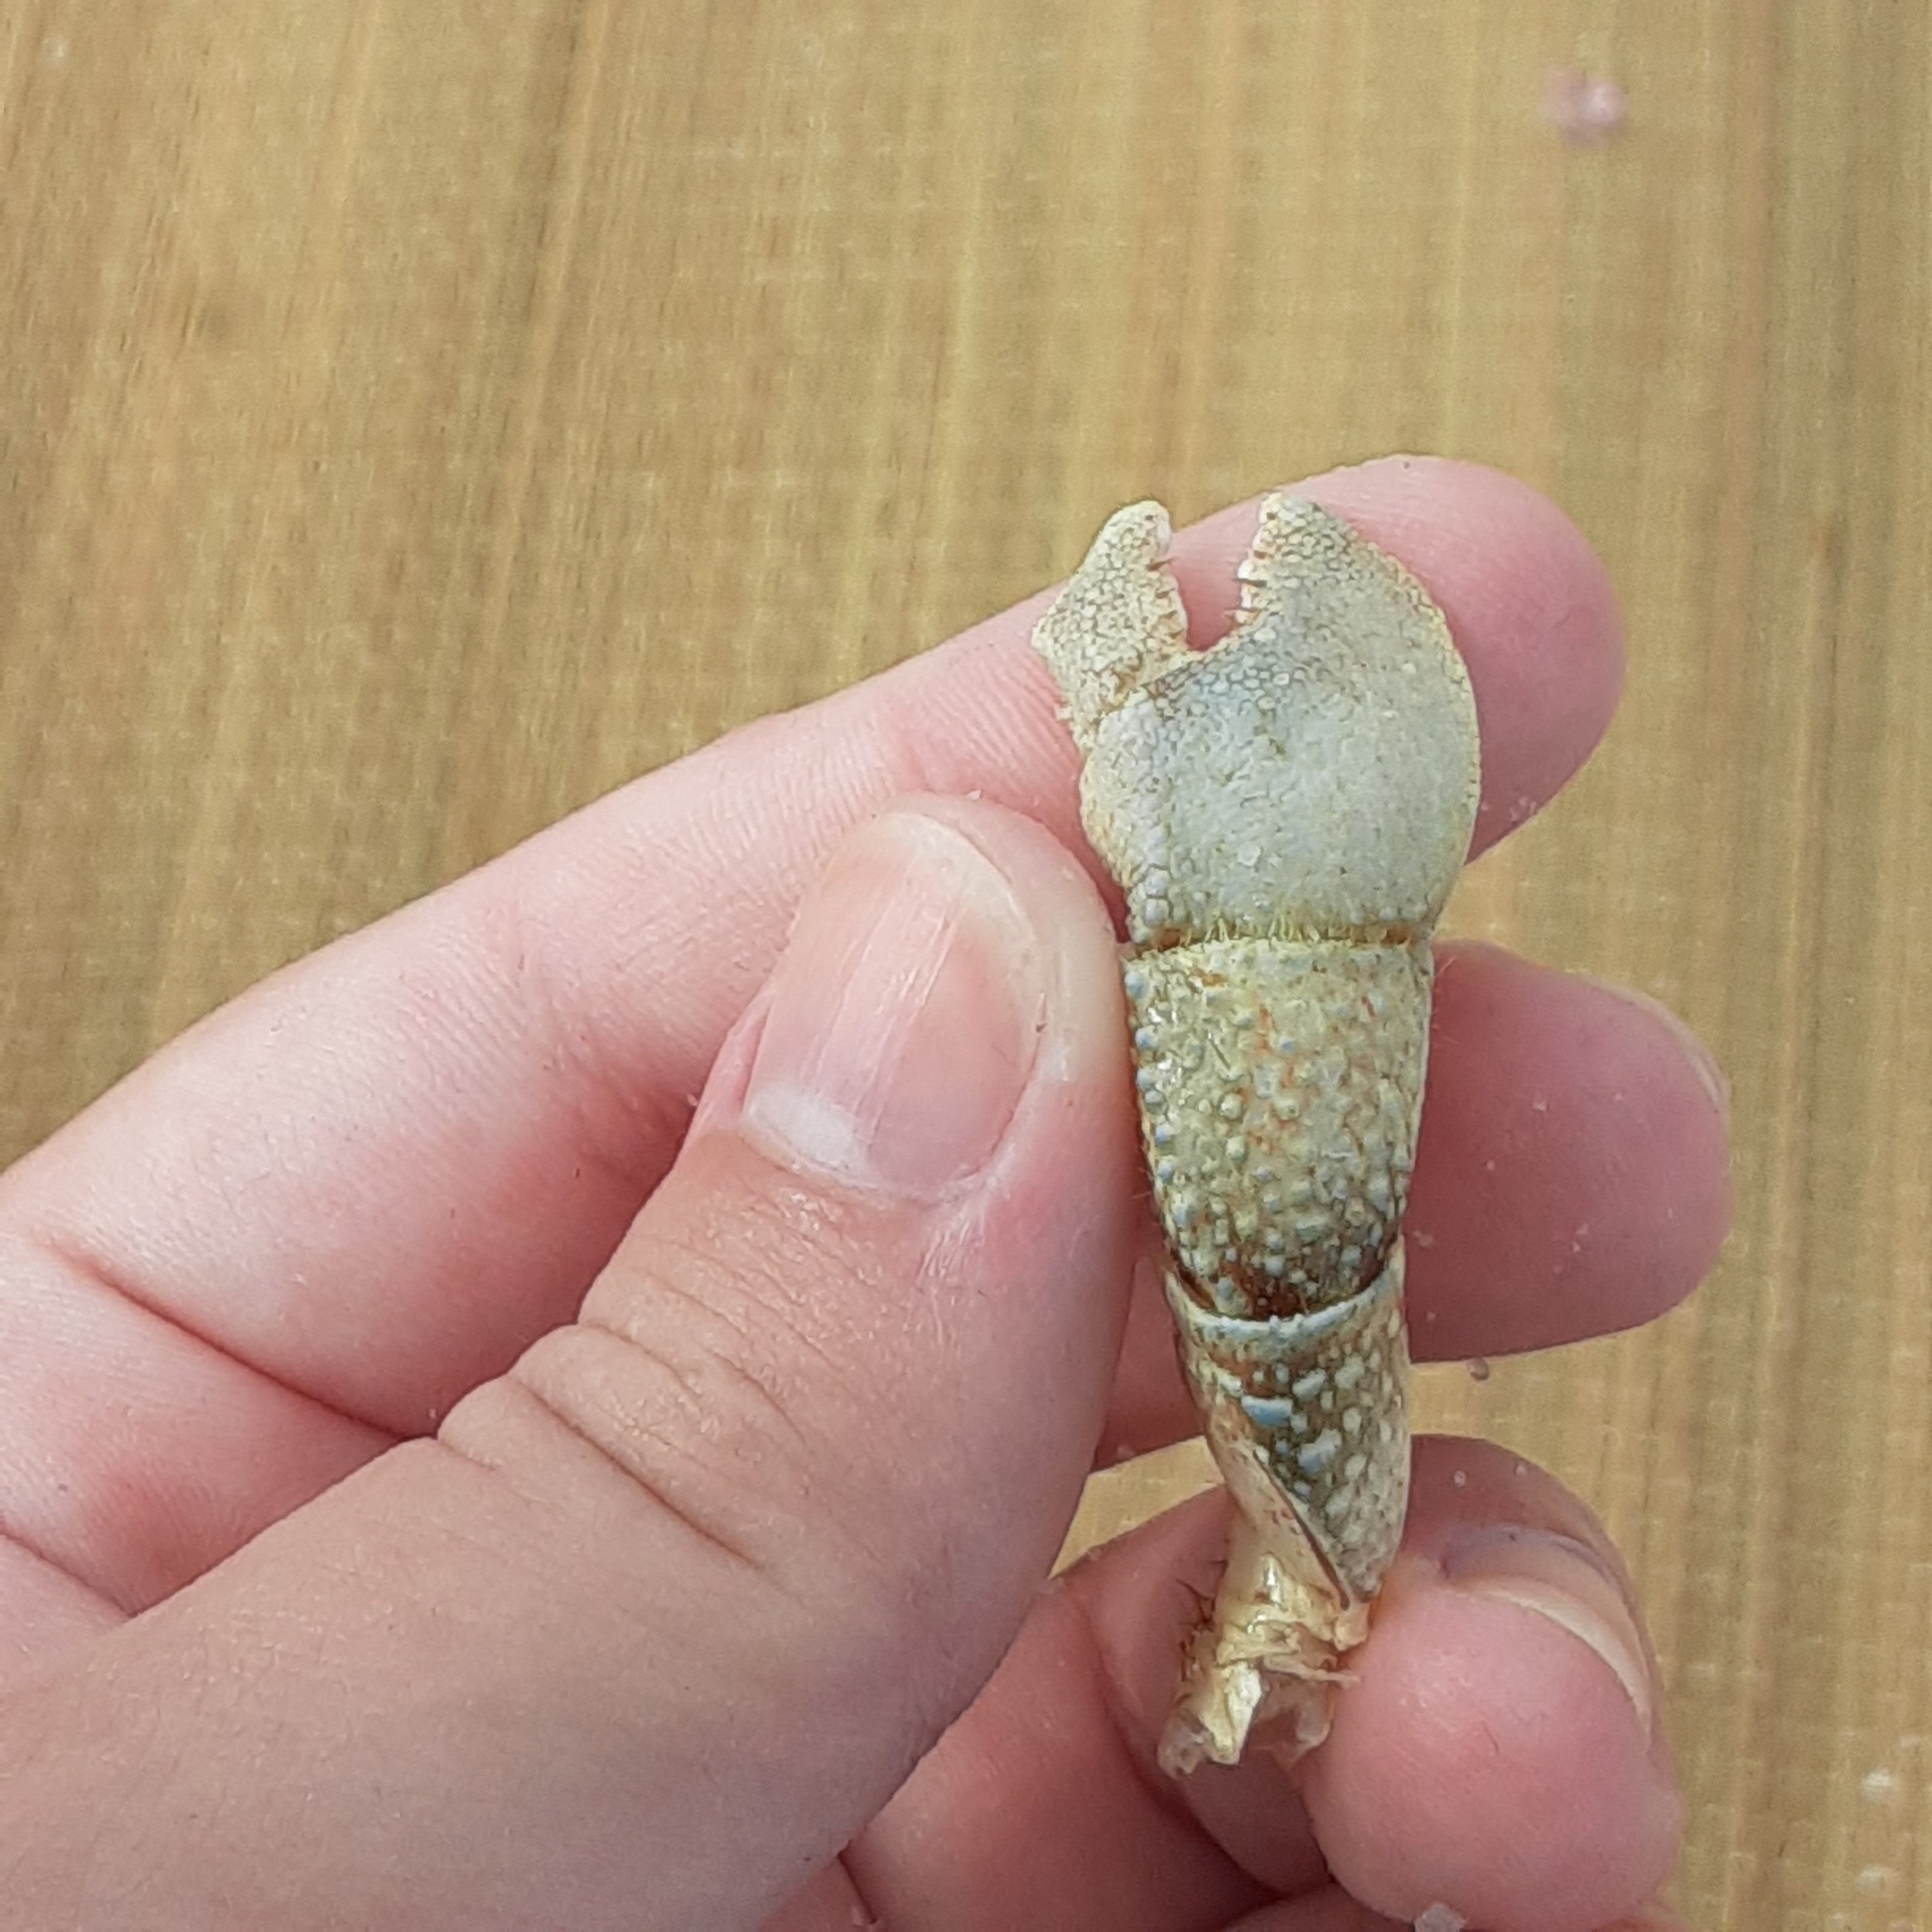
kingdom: Animalia
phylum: Arthropoda
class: Malacostraca
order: Decapoda
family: Paguridae
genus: Pagurus
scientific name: Pagurus pollicaris
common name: Flatclaw hermit
